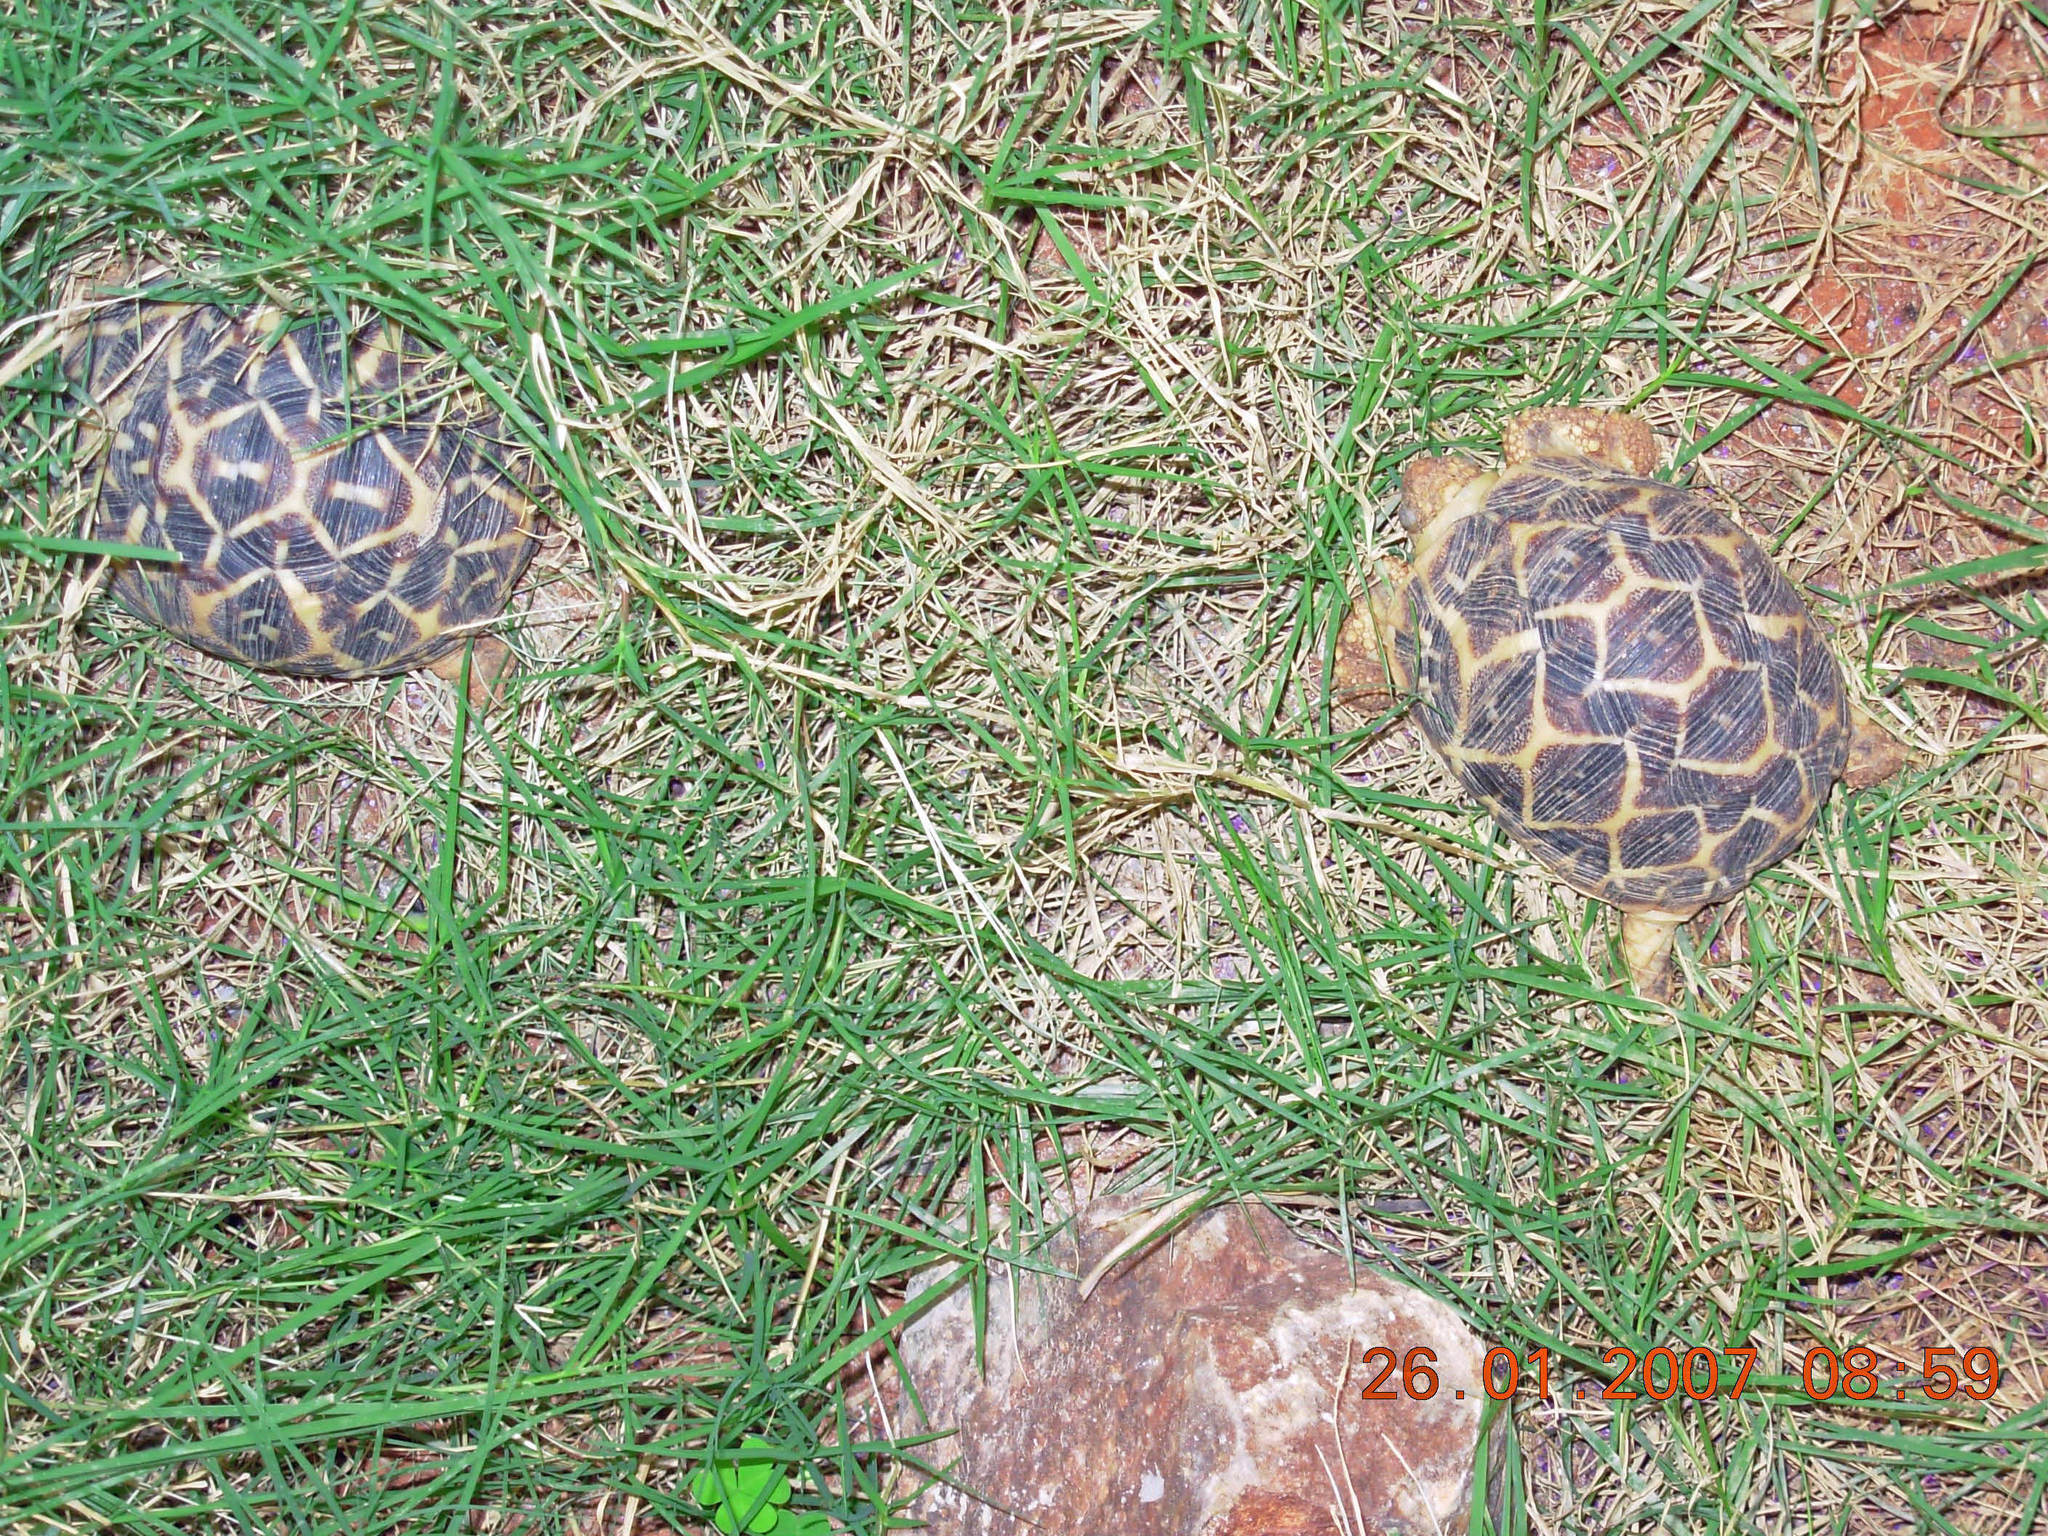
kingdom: Animalia
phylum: Chordata
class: Testudines
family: Testudinidae
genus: Geochelone
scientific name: Geochelone elegans
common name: Indian star tortoise
